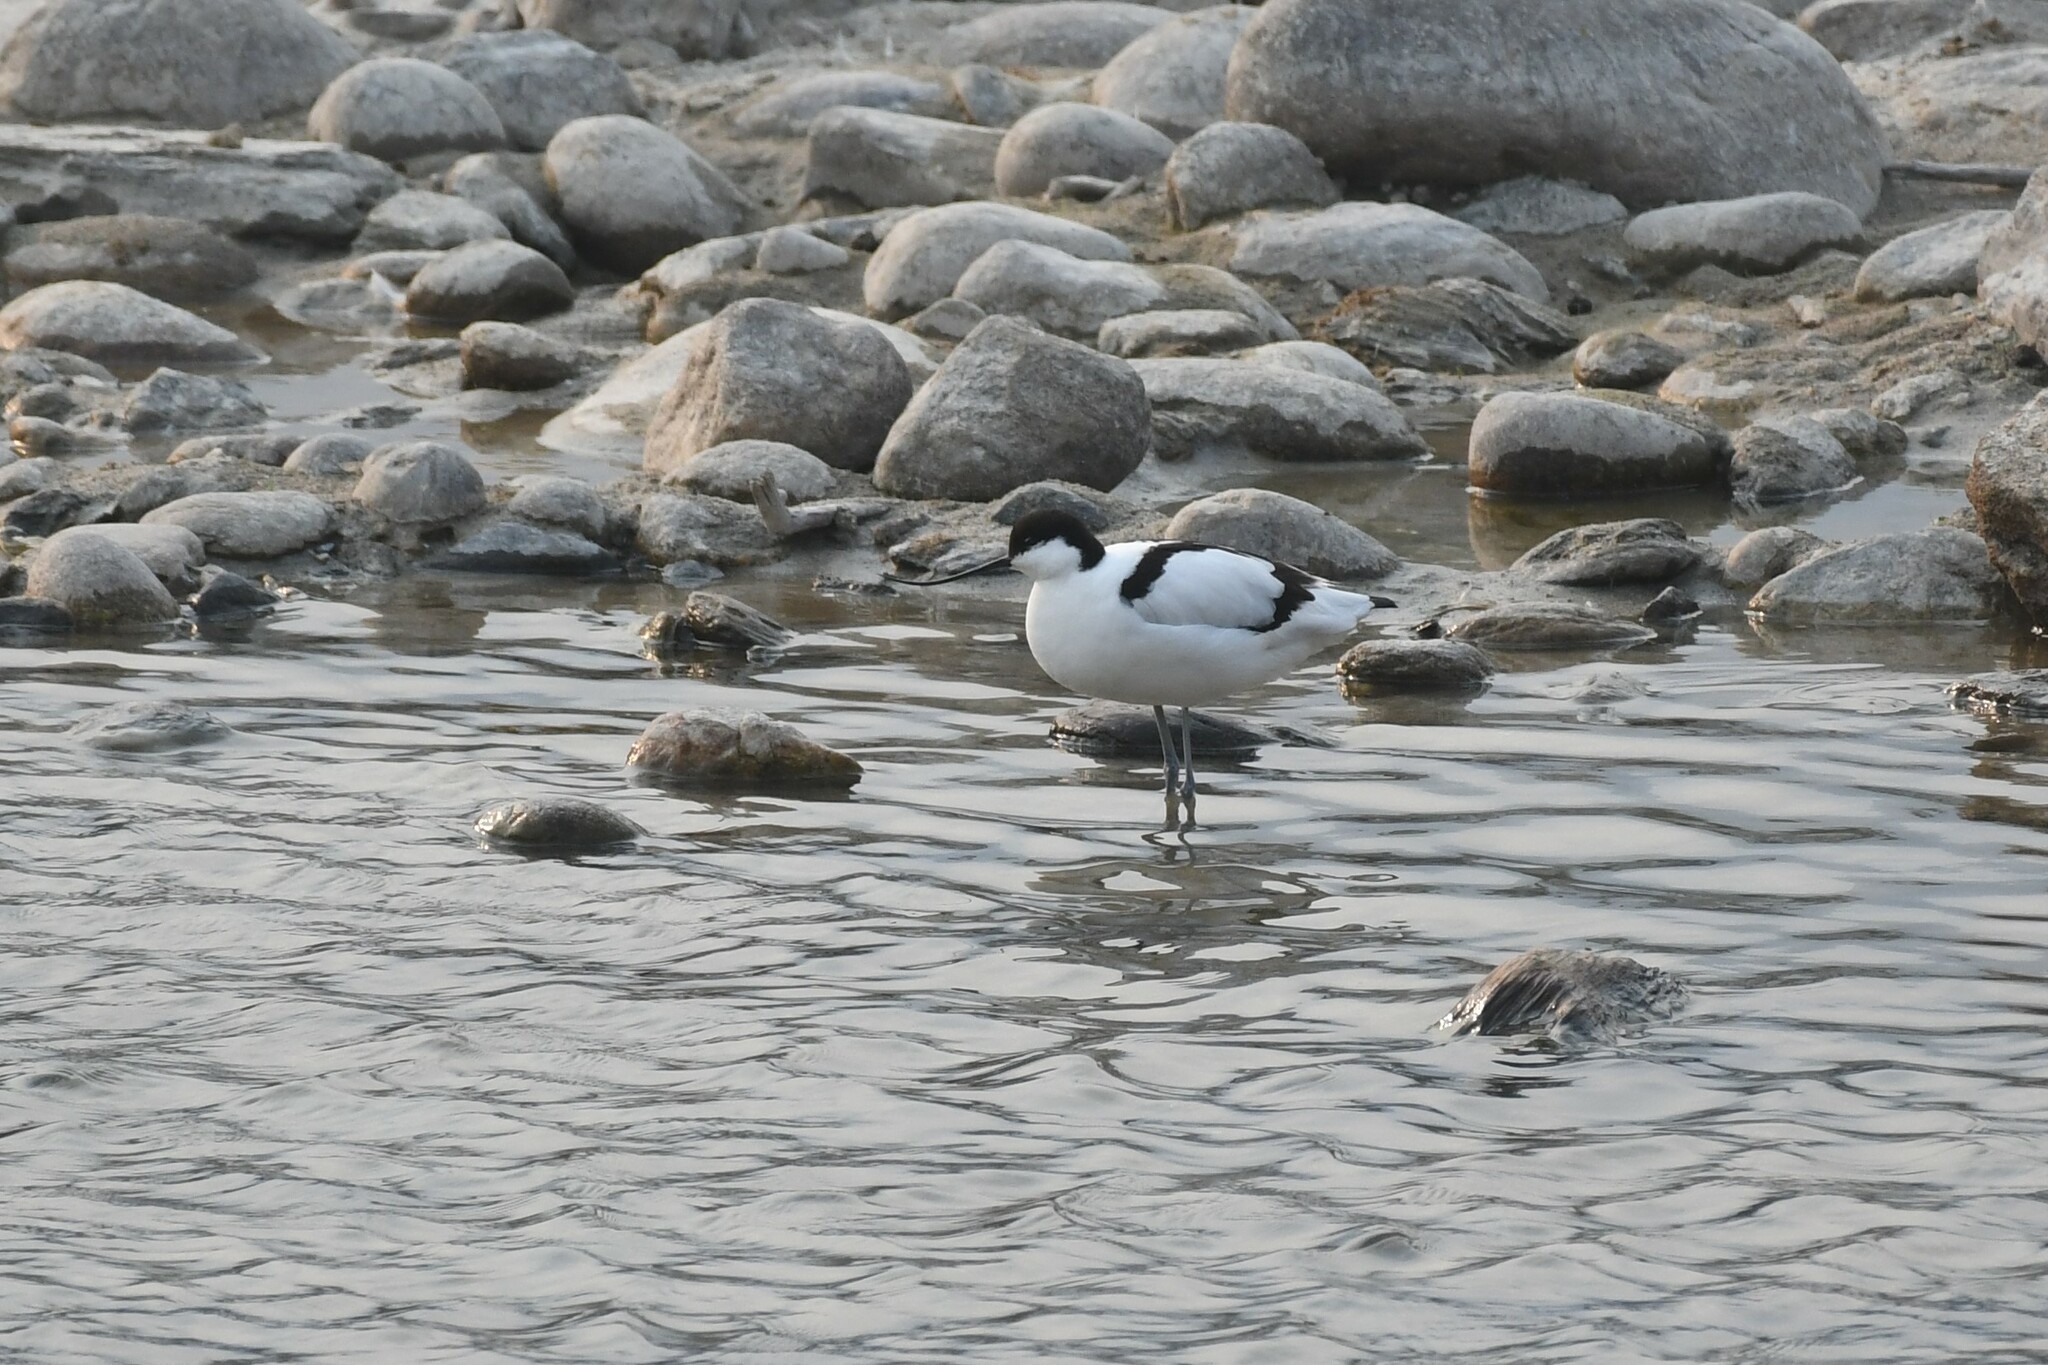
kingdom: Animalia
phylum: Chordata
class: Aves
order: Charadriiformes
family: Recurvirostridae
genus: Recurvirostra
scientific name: Recurvirostra avosetta
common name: Pied avocet
